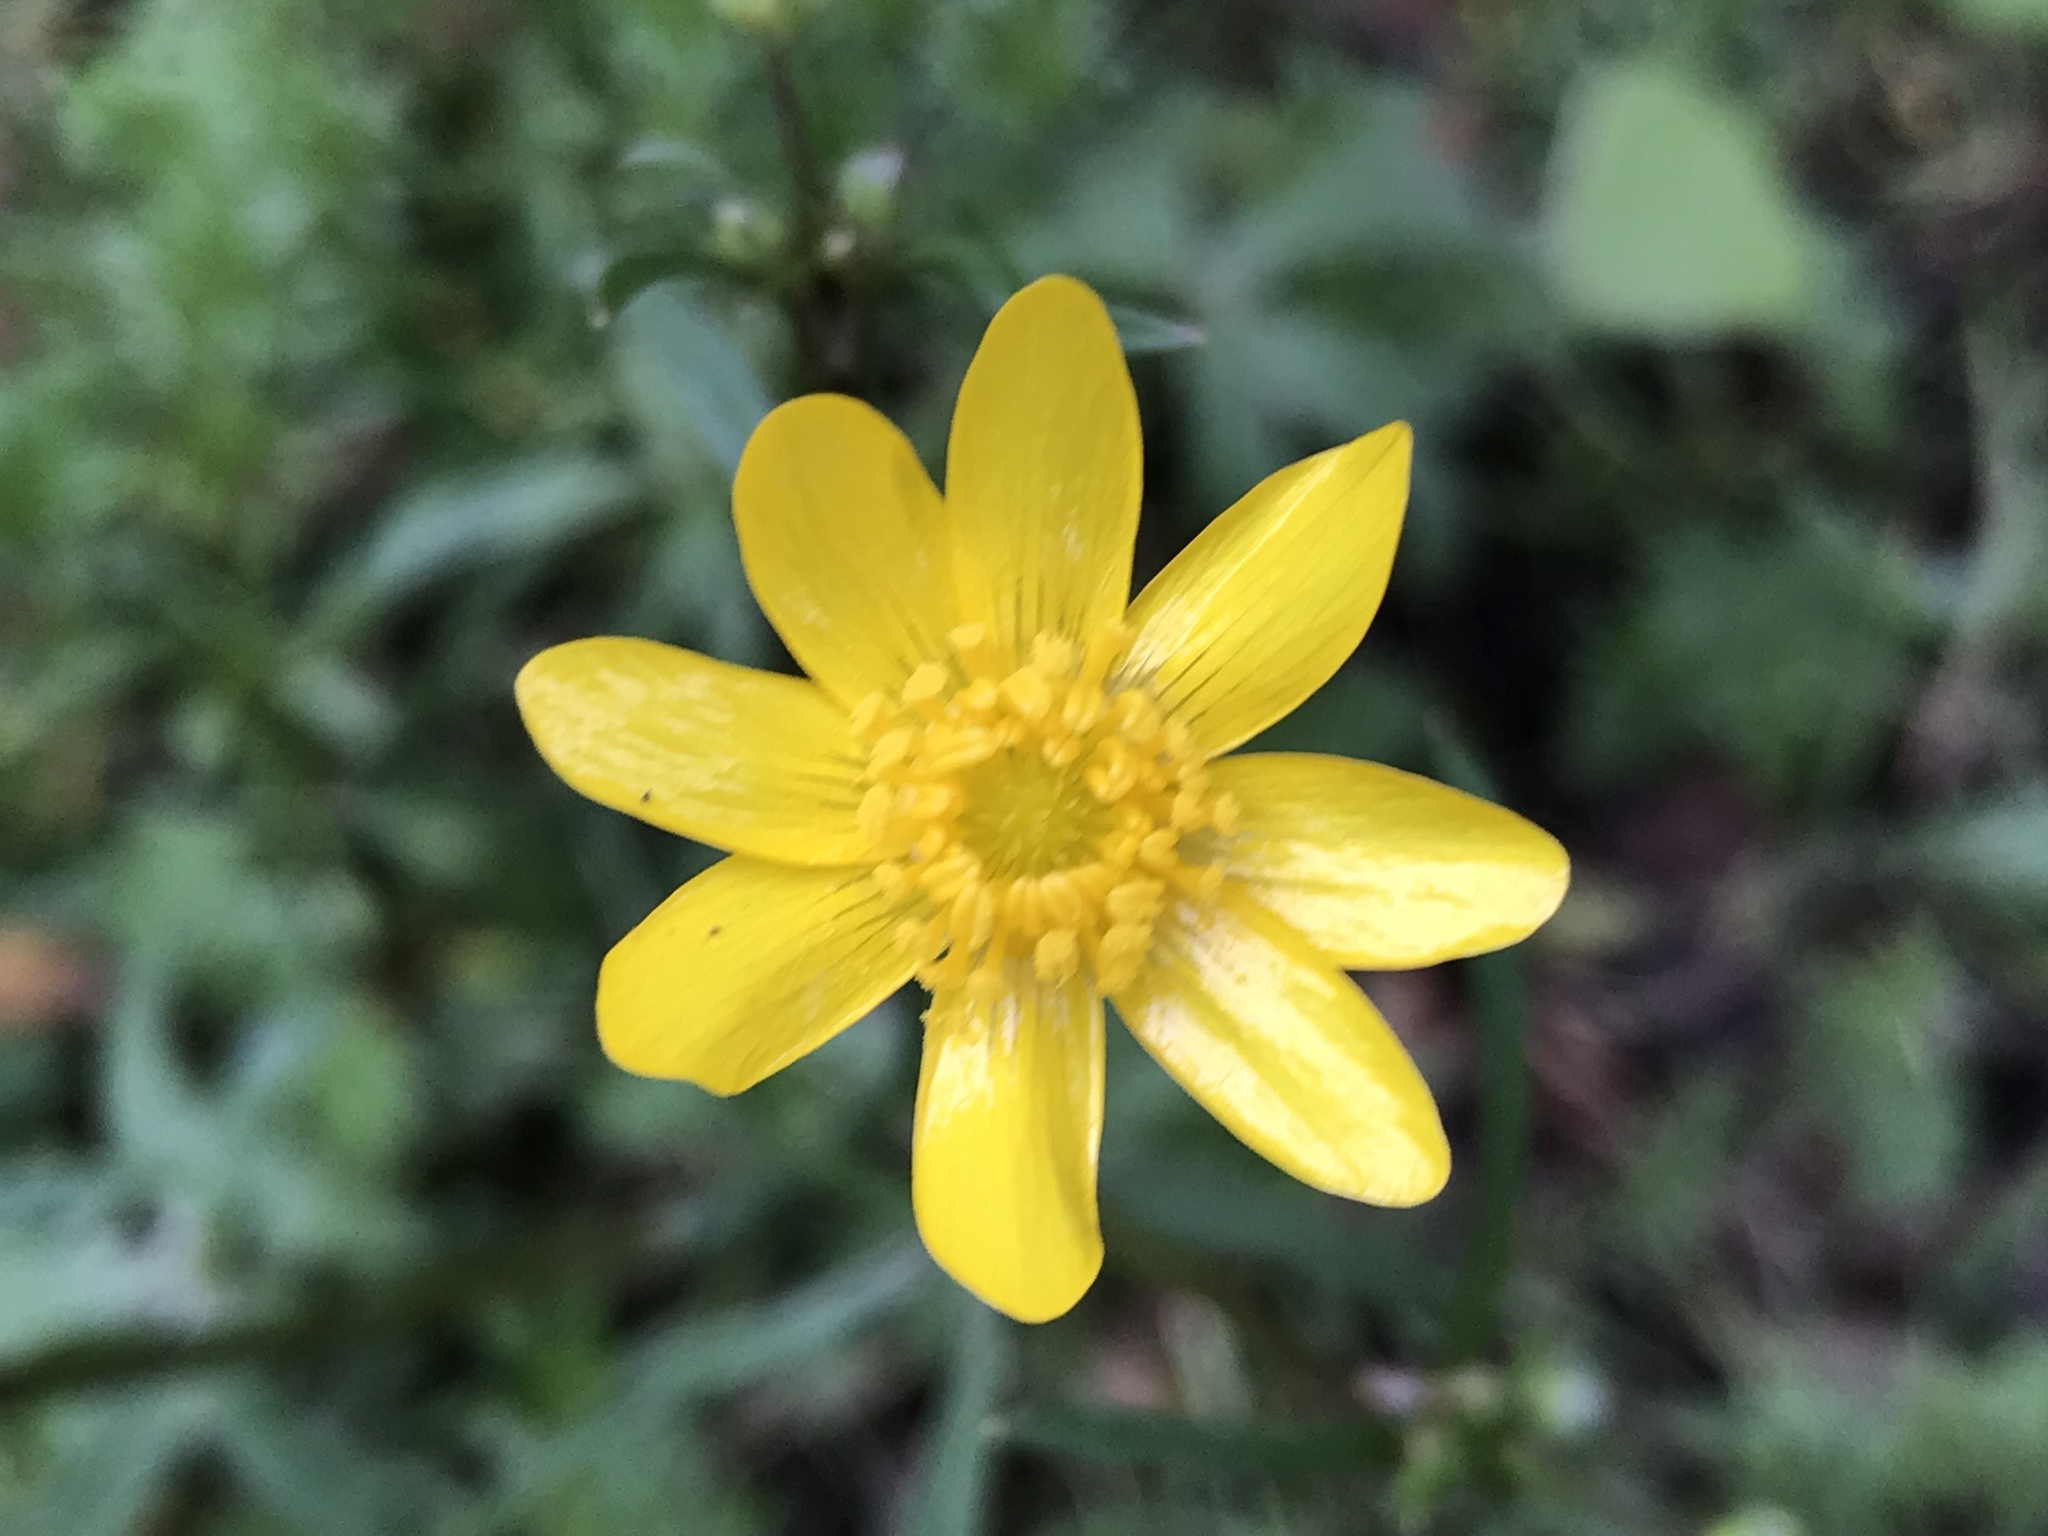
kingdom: Plantae
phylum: Tracheophyta
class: Magnoliopsida
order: Ranunculales
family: Ranunculaceae
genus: Ranunculus
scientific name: Ranunculus californicus
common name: California buttercup
